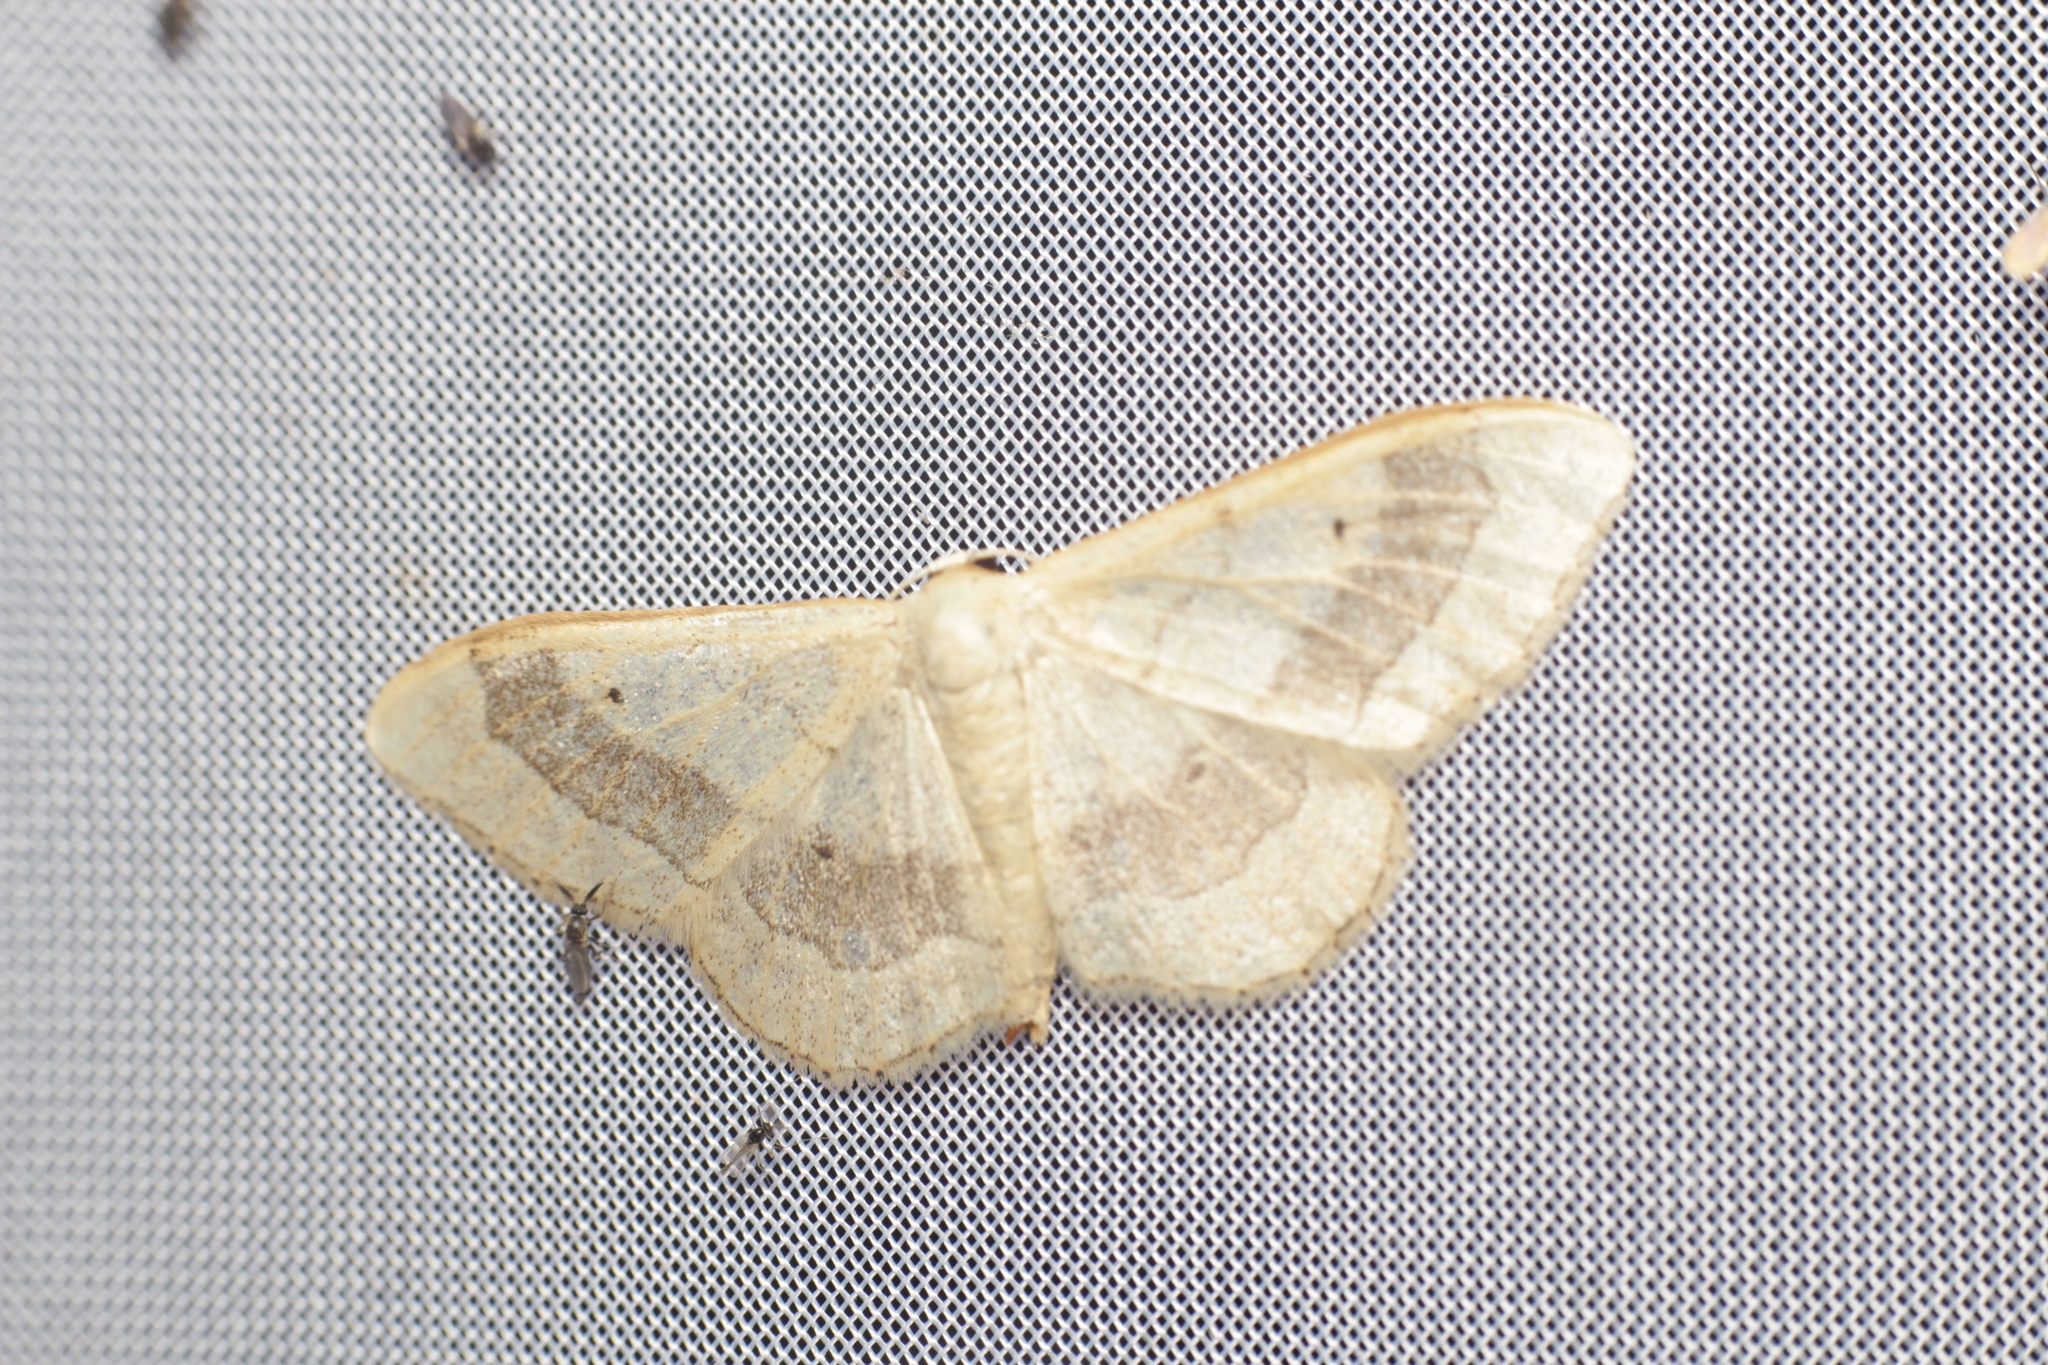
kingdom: Animalia
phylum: Arthropoda
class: Insecta
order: Lepidoptera
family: Geometridae
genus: Idaea
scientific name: Idaea aversata
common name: Riband wave
